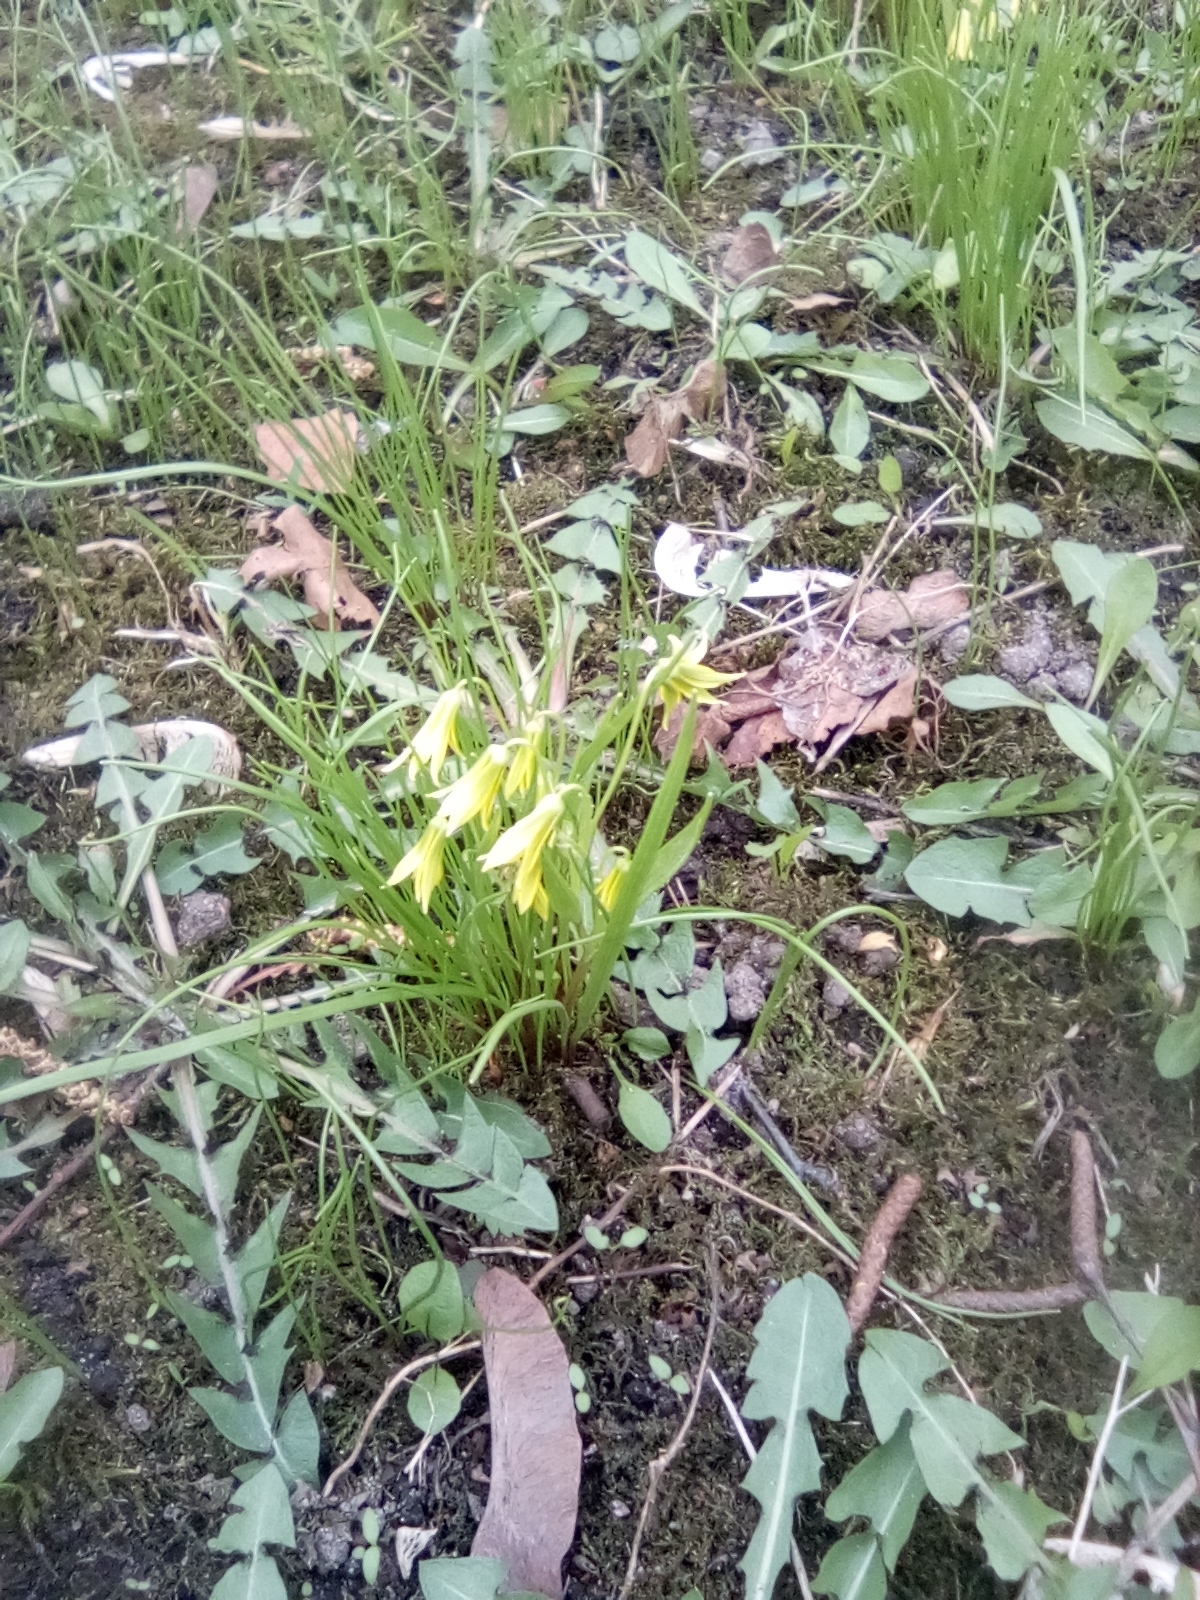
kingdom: Plantae
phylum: Tracheophyta
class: Liliopsida
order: Liliales
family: Liliaceae
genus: Gagea
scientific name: Gagea minima
